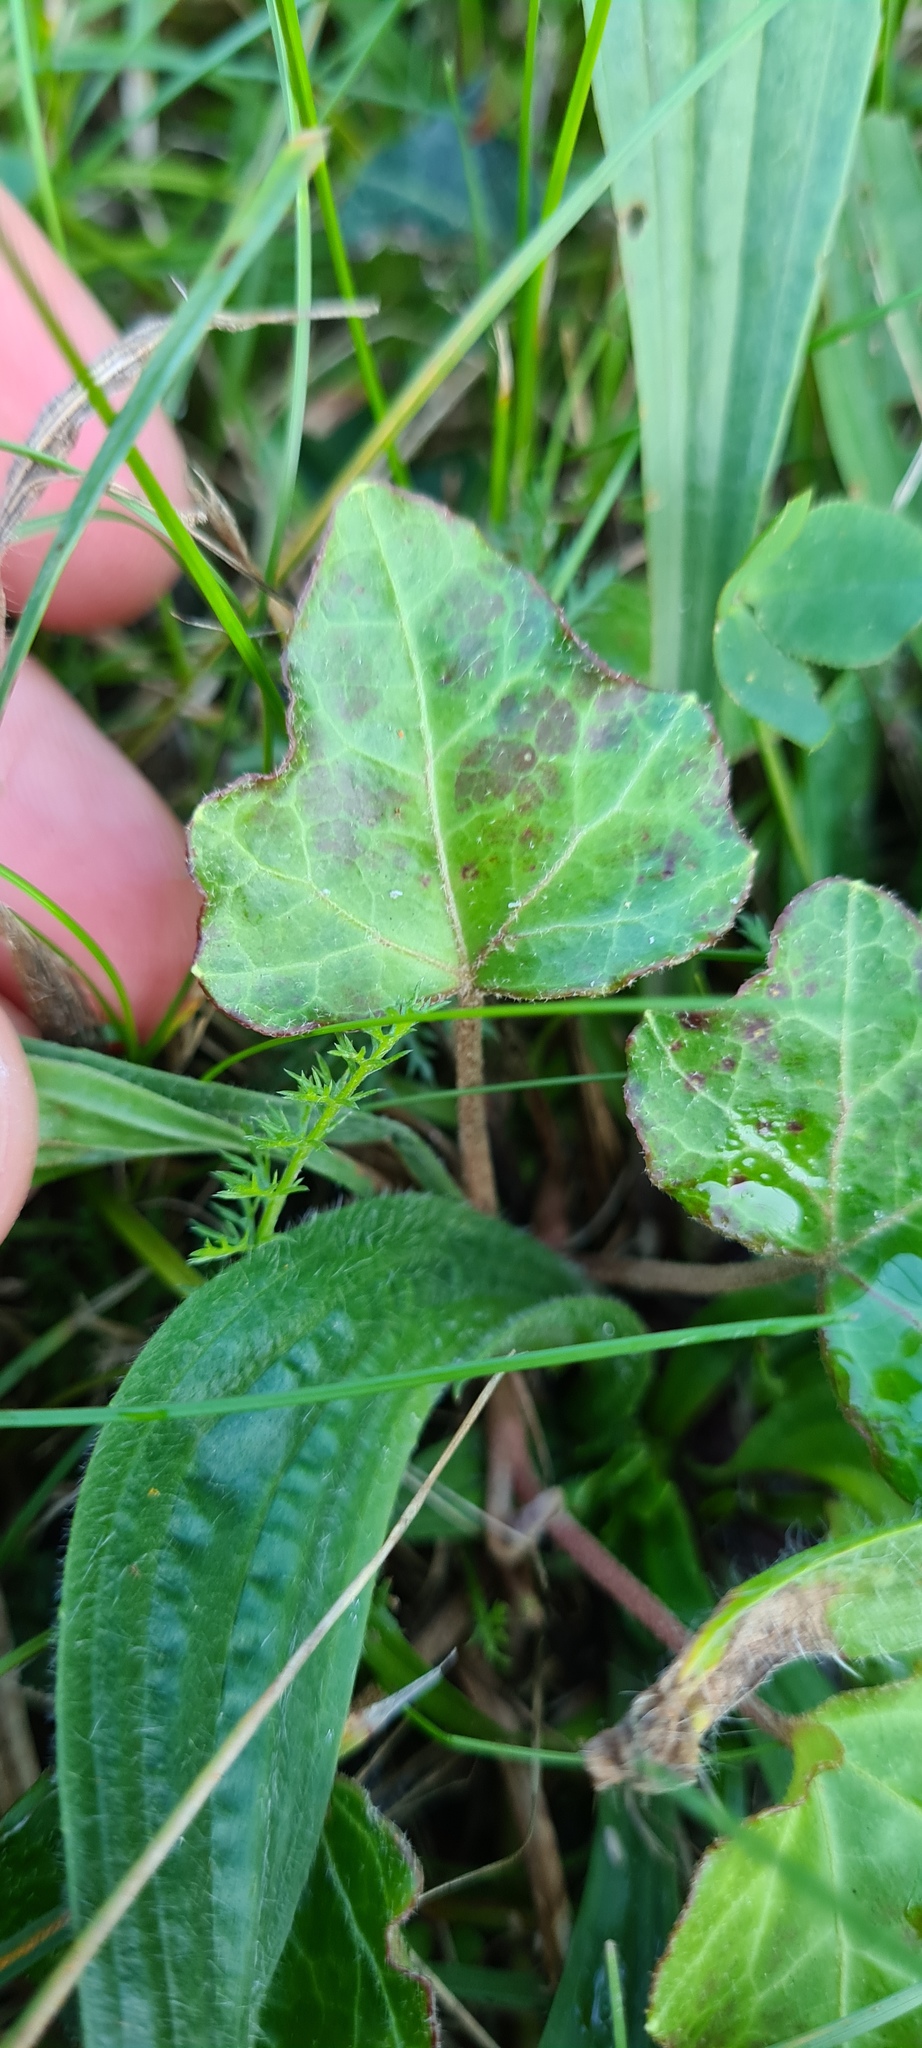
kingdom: Plantae
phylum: Tracheophyta
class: Magnoliopsida
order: Apiales
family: Araliaceae
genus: Hedera
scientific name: Hedera helix
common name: Ivy
